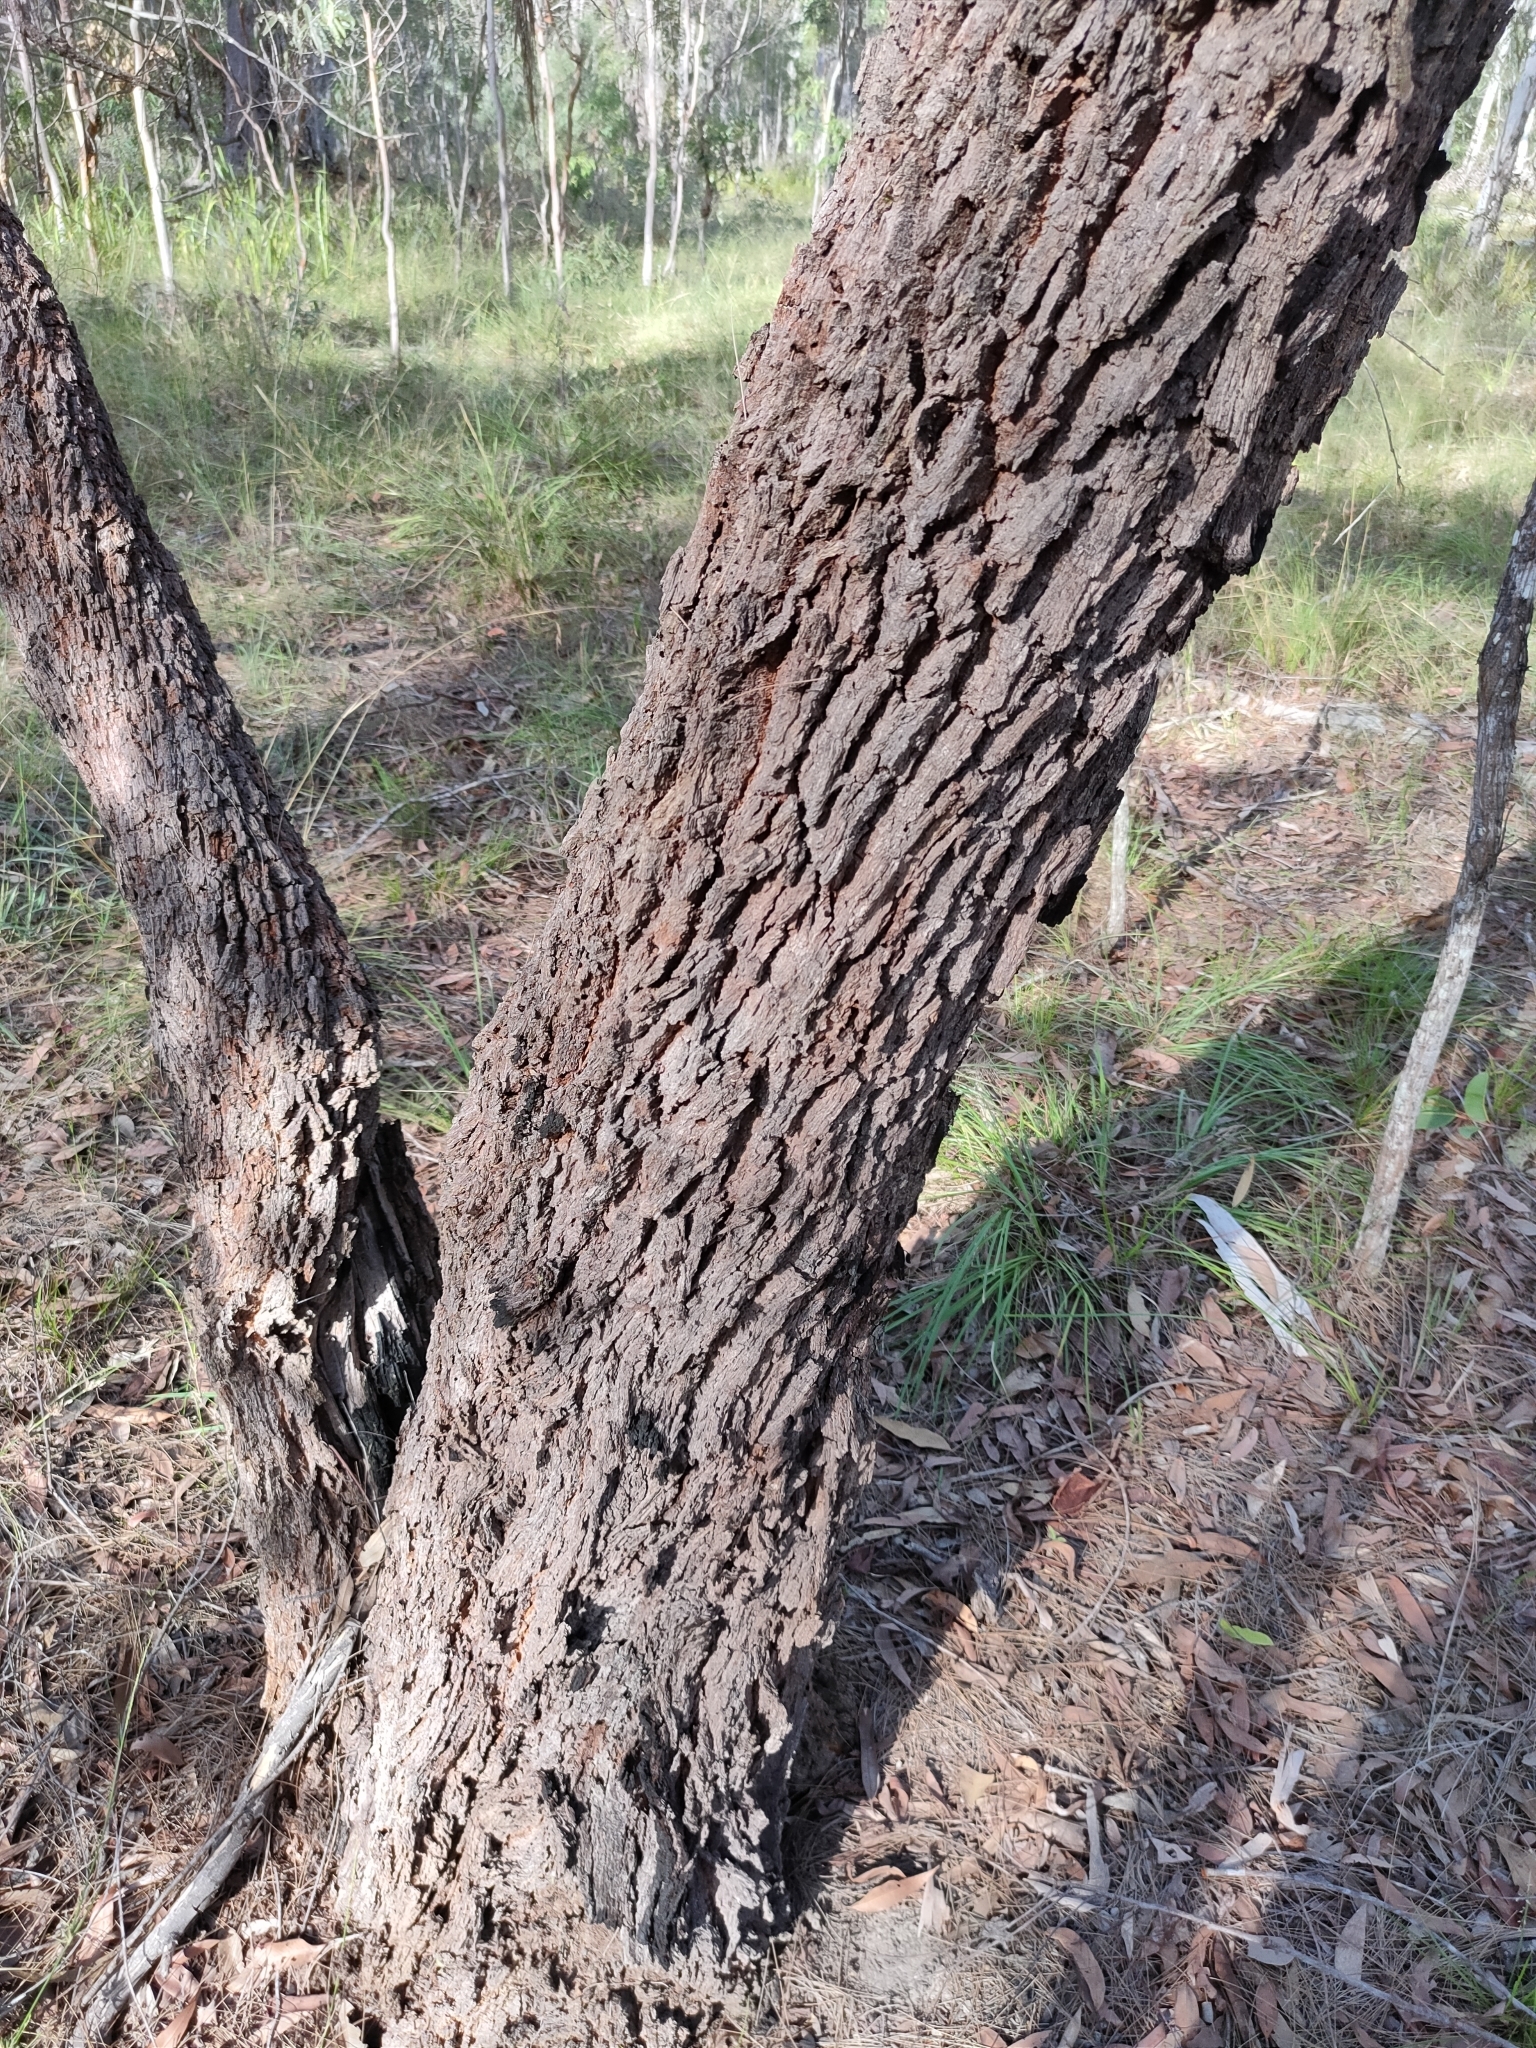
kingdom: Plantae
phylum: Tracheophyta
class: Magnoliopsida
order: Fagales
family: Casuarinaceae
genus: Allocasuarina
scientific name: Allocasuarina torulosa
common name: Forest-oak
